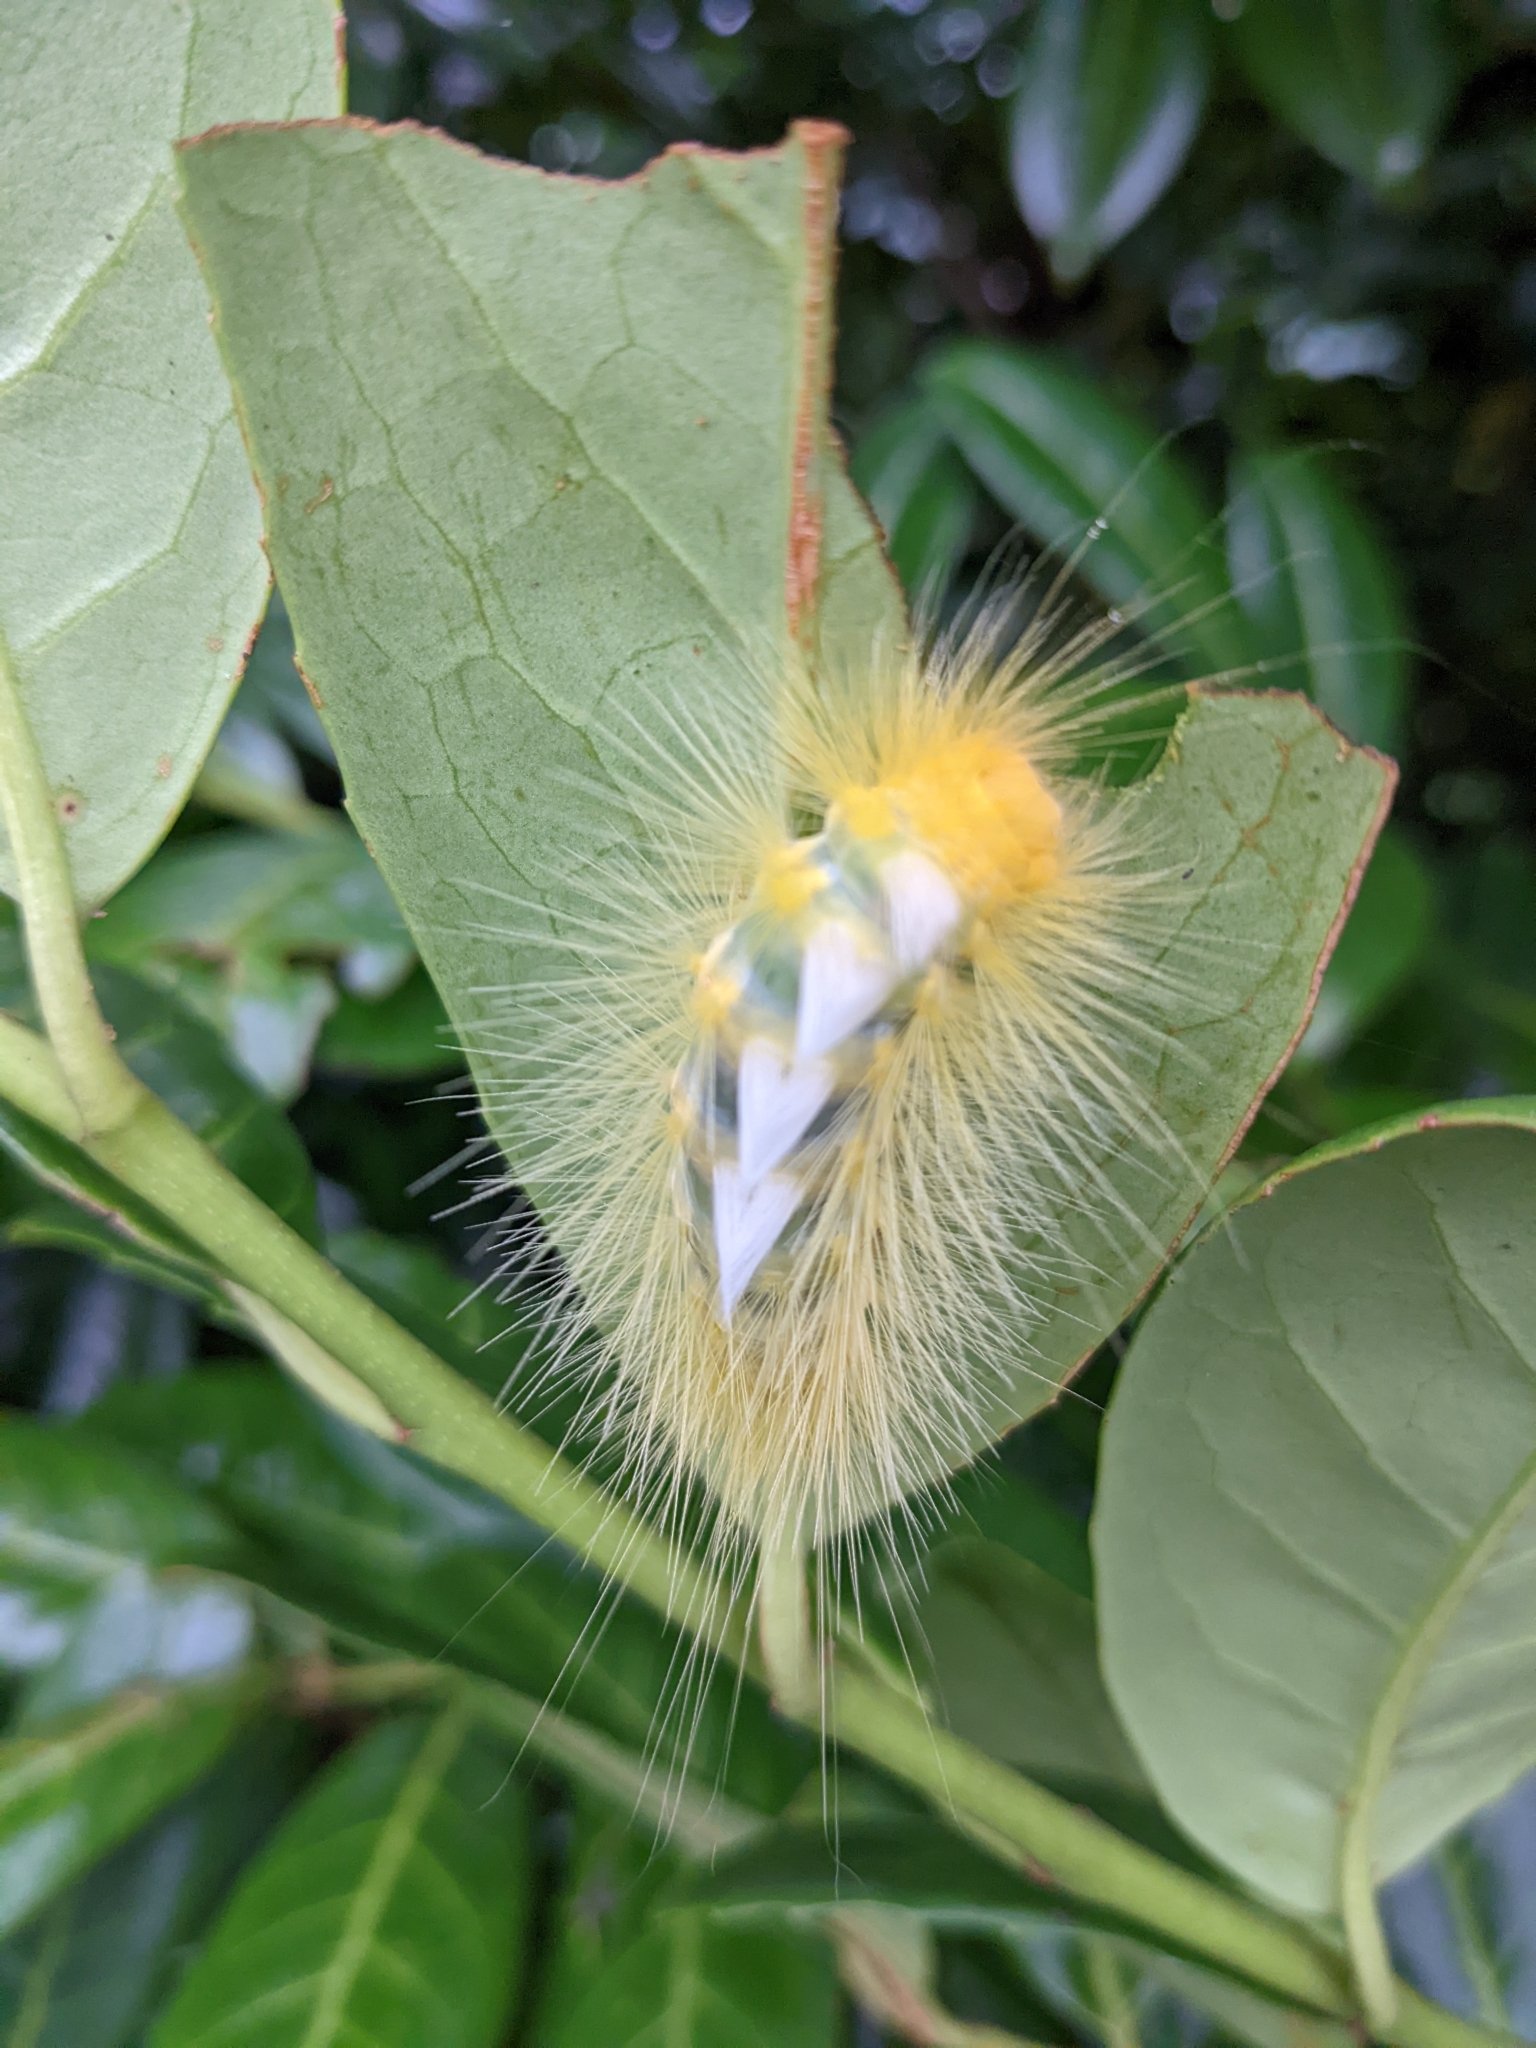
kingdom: Animalia
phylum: Arthropoda
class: Insecta
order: Lepidoptera
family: Erebidae
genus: Calliteara
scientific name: Calliteara pura
